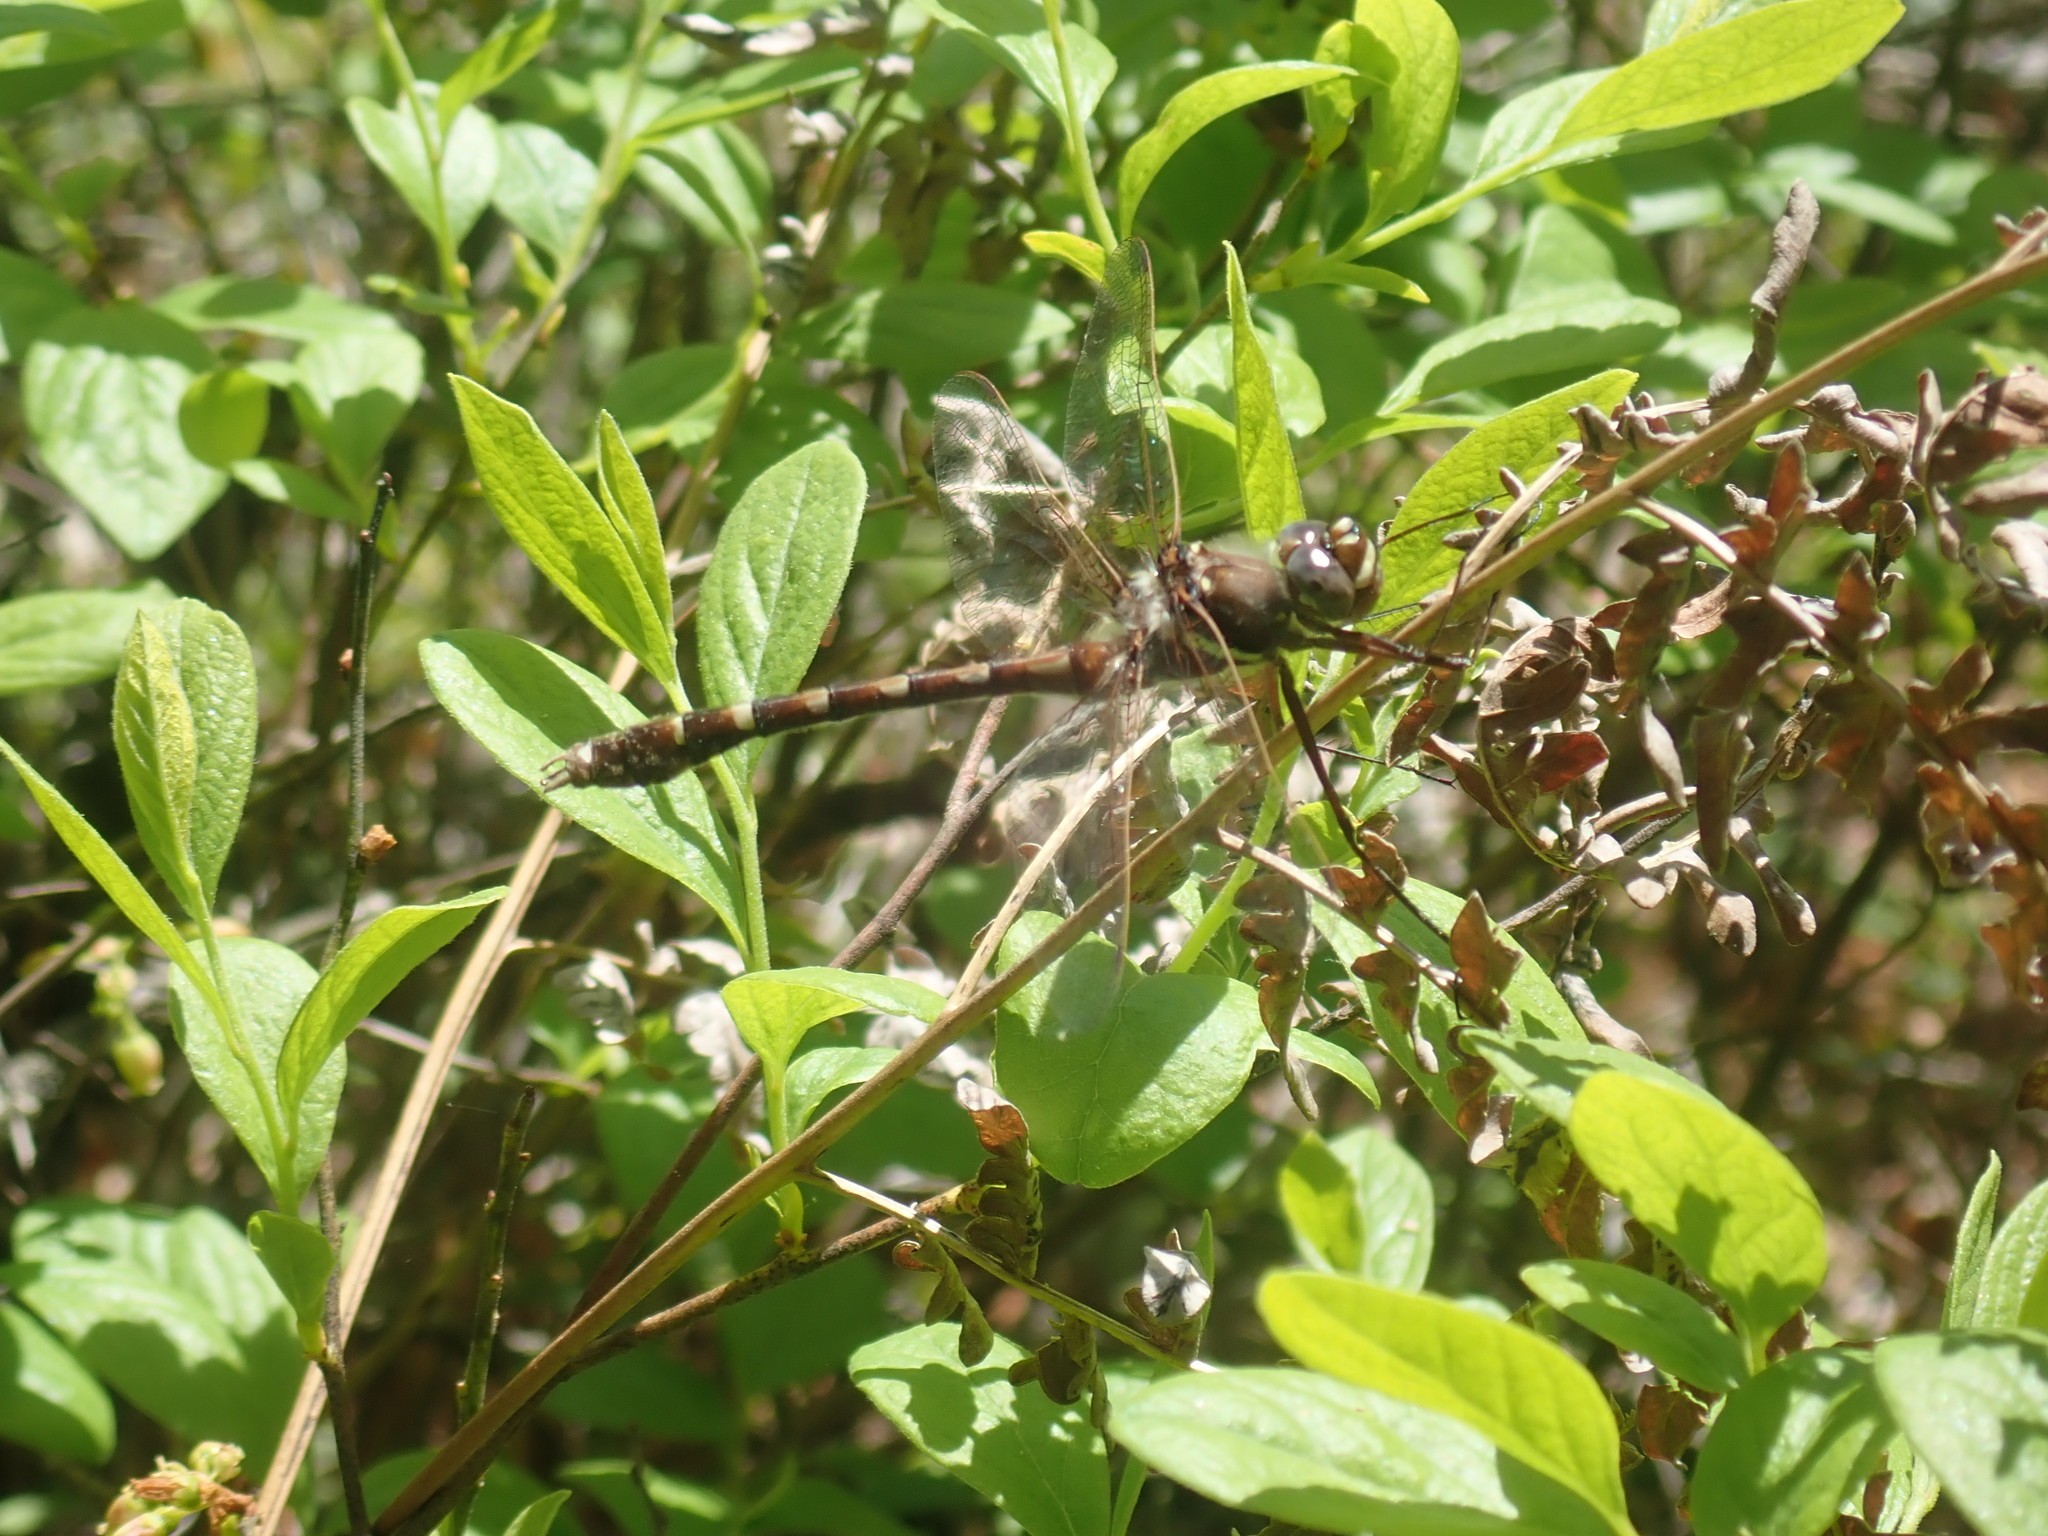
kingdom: Animalia
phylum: Arthropoda
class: Insecta
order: Odonata
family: Macromiidae
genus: Didymops
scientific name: Didymops transversa
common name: Stream cruiser
